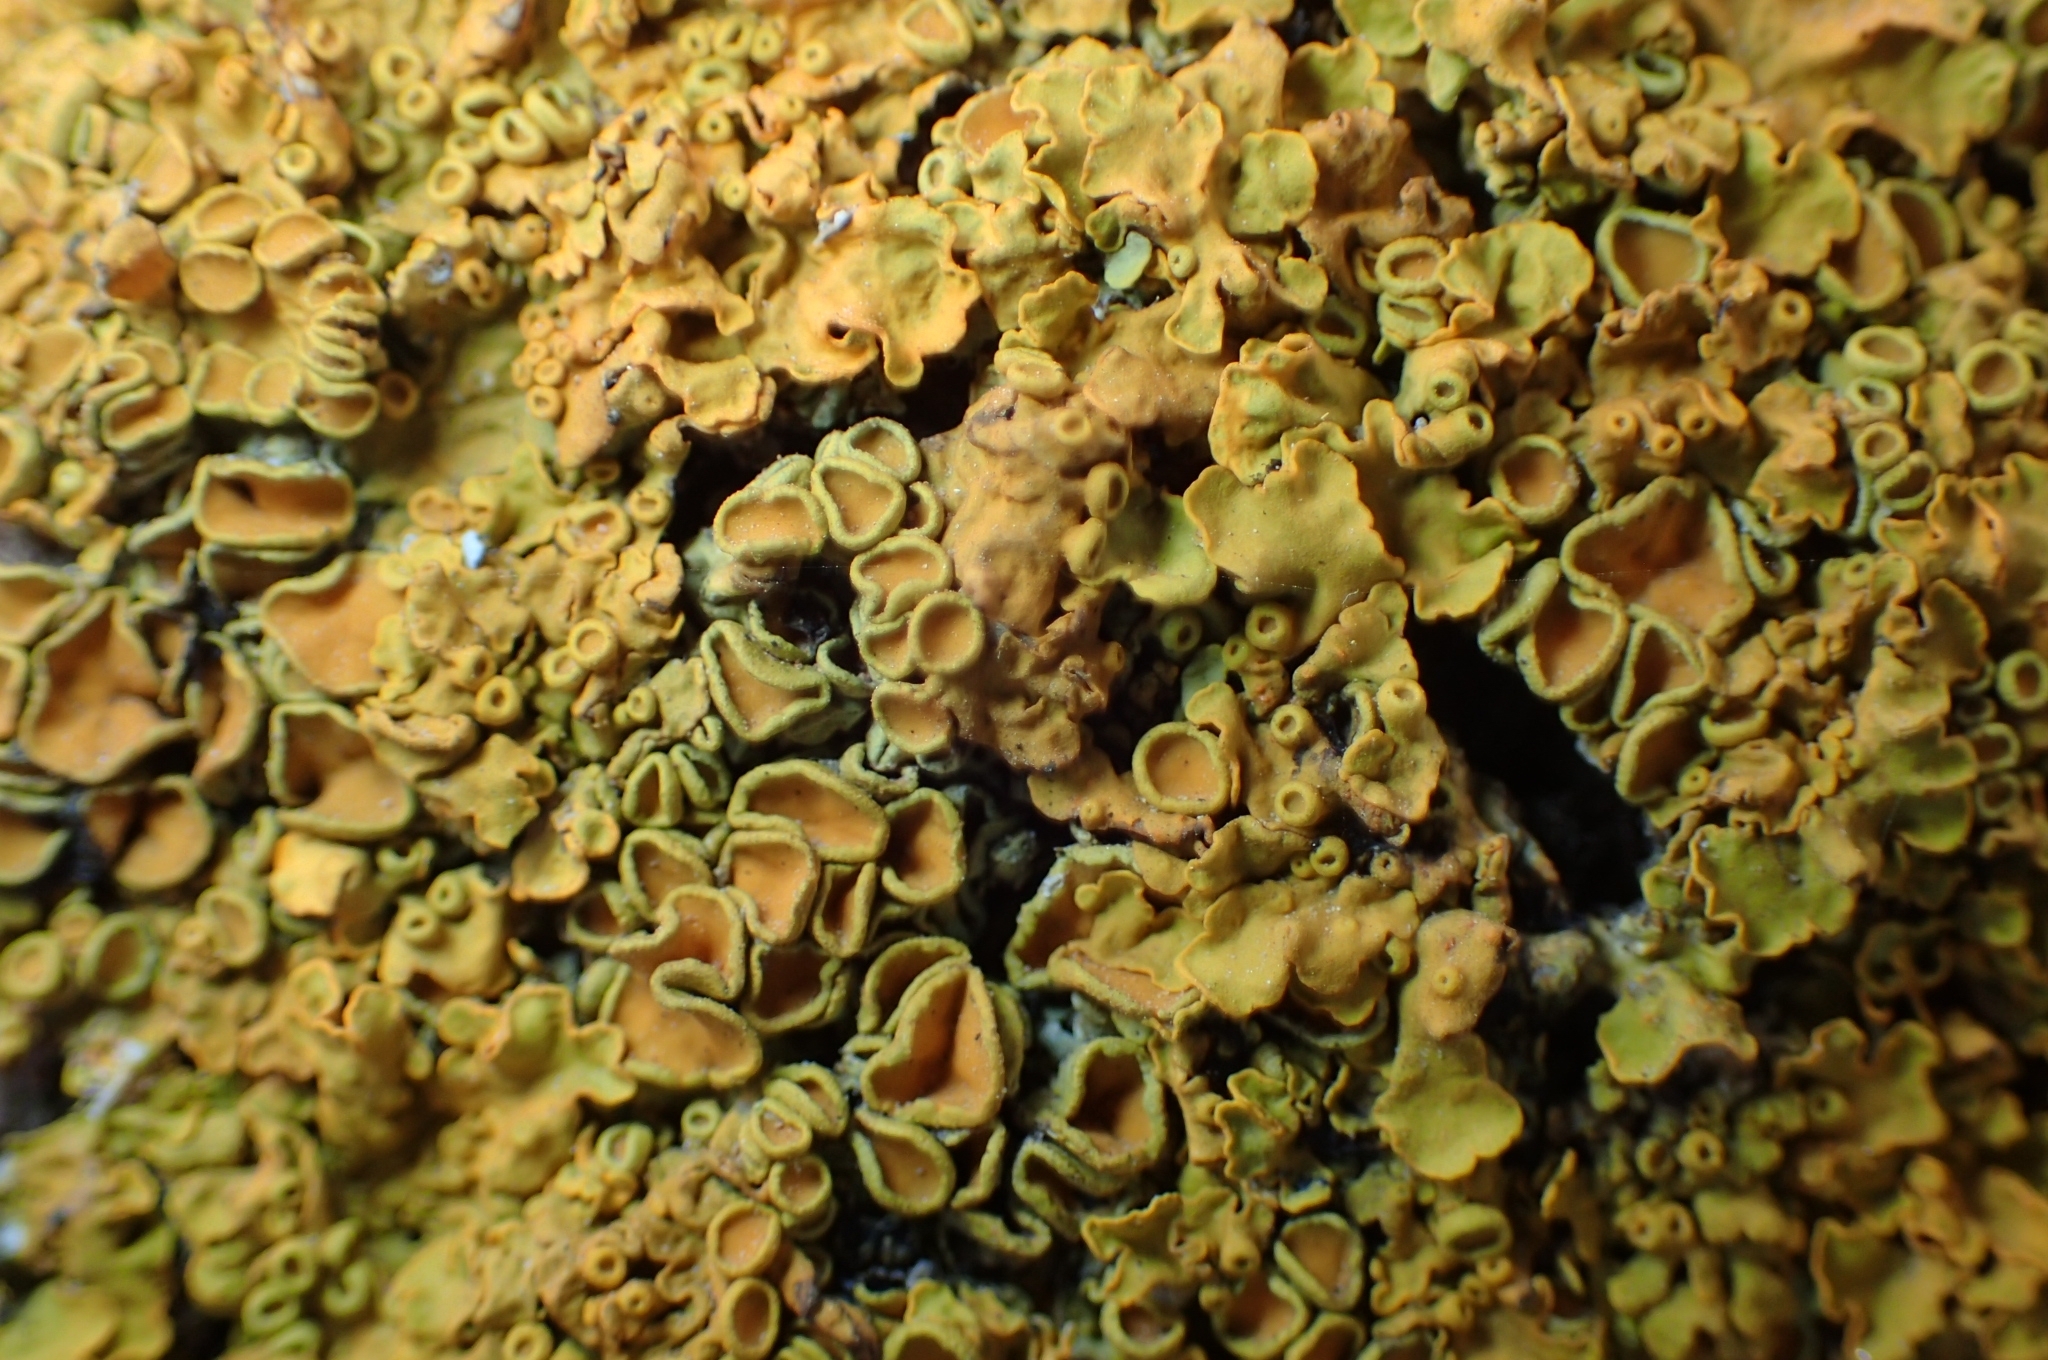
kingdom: Fungi
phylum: Ascomycota
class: Lecanoromycetes
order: Teloschistales
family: Teloschistaceae
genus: Xanthoria
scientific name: Xanthoria parietina
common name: Common orange lichen
